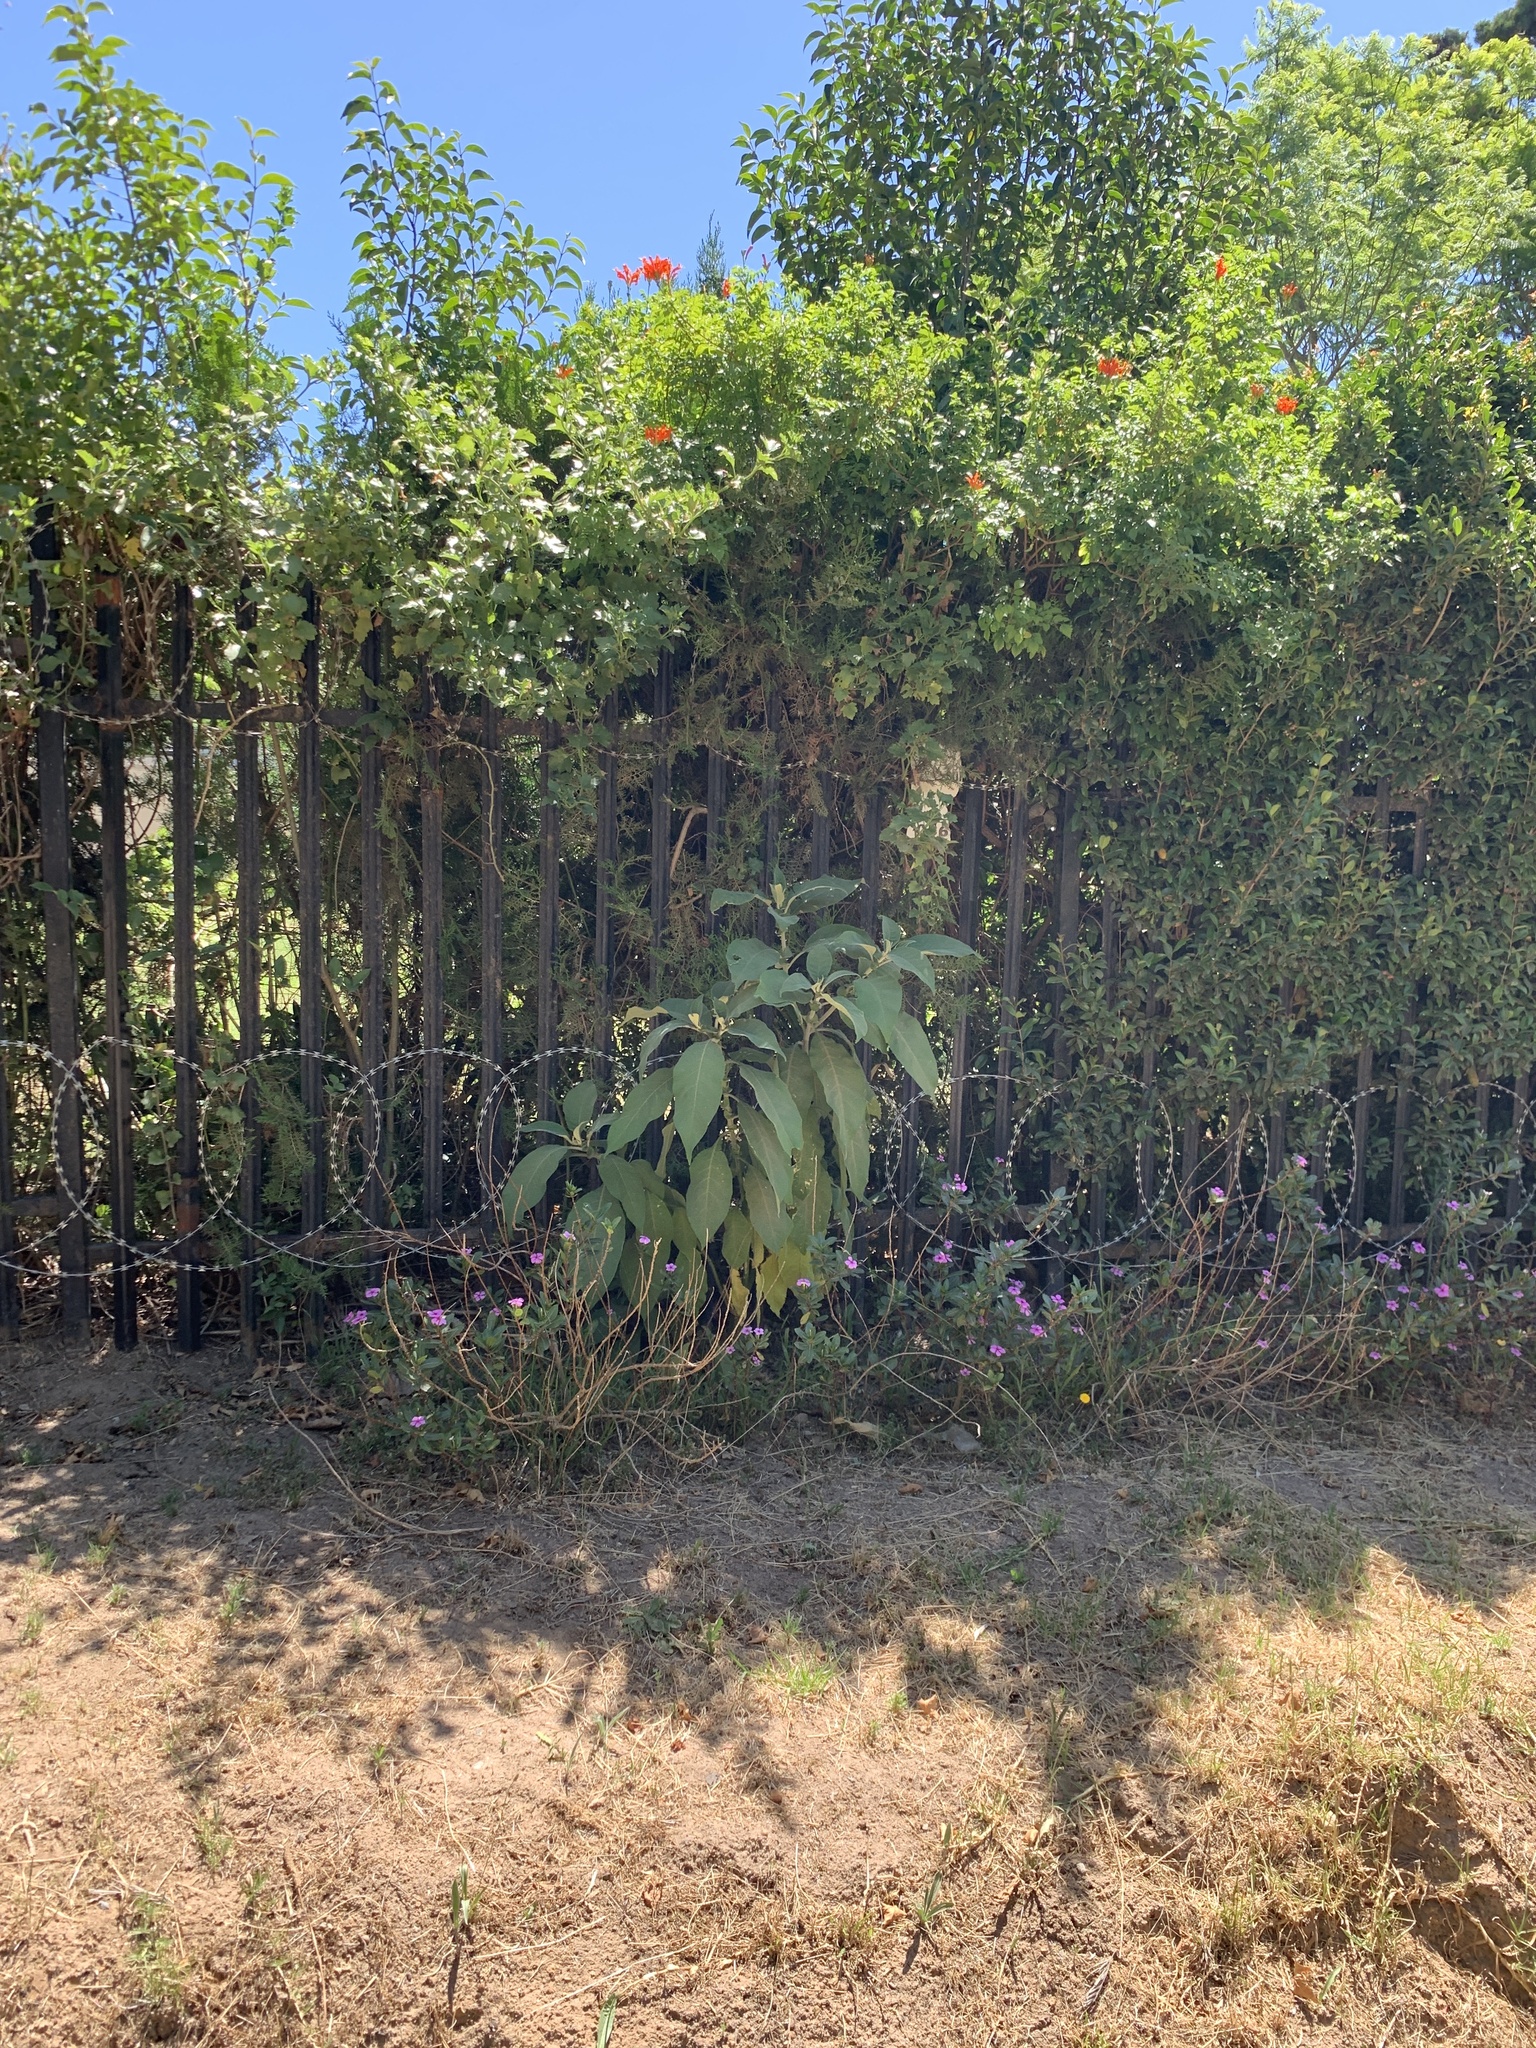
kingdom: Plantae
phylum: Tracheophyta
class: Magnoliopsida
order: Solanales
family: Solanaceae
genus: Solanum
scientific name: Solanum mauritianum
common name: Earleaf nightshade
